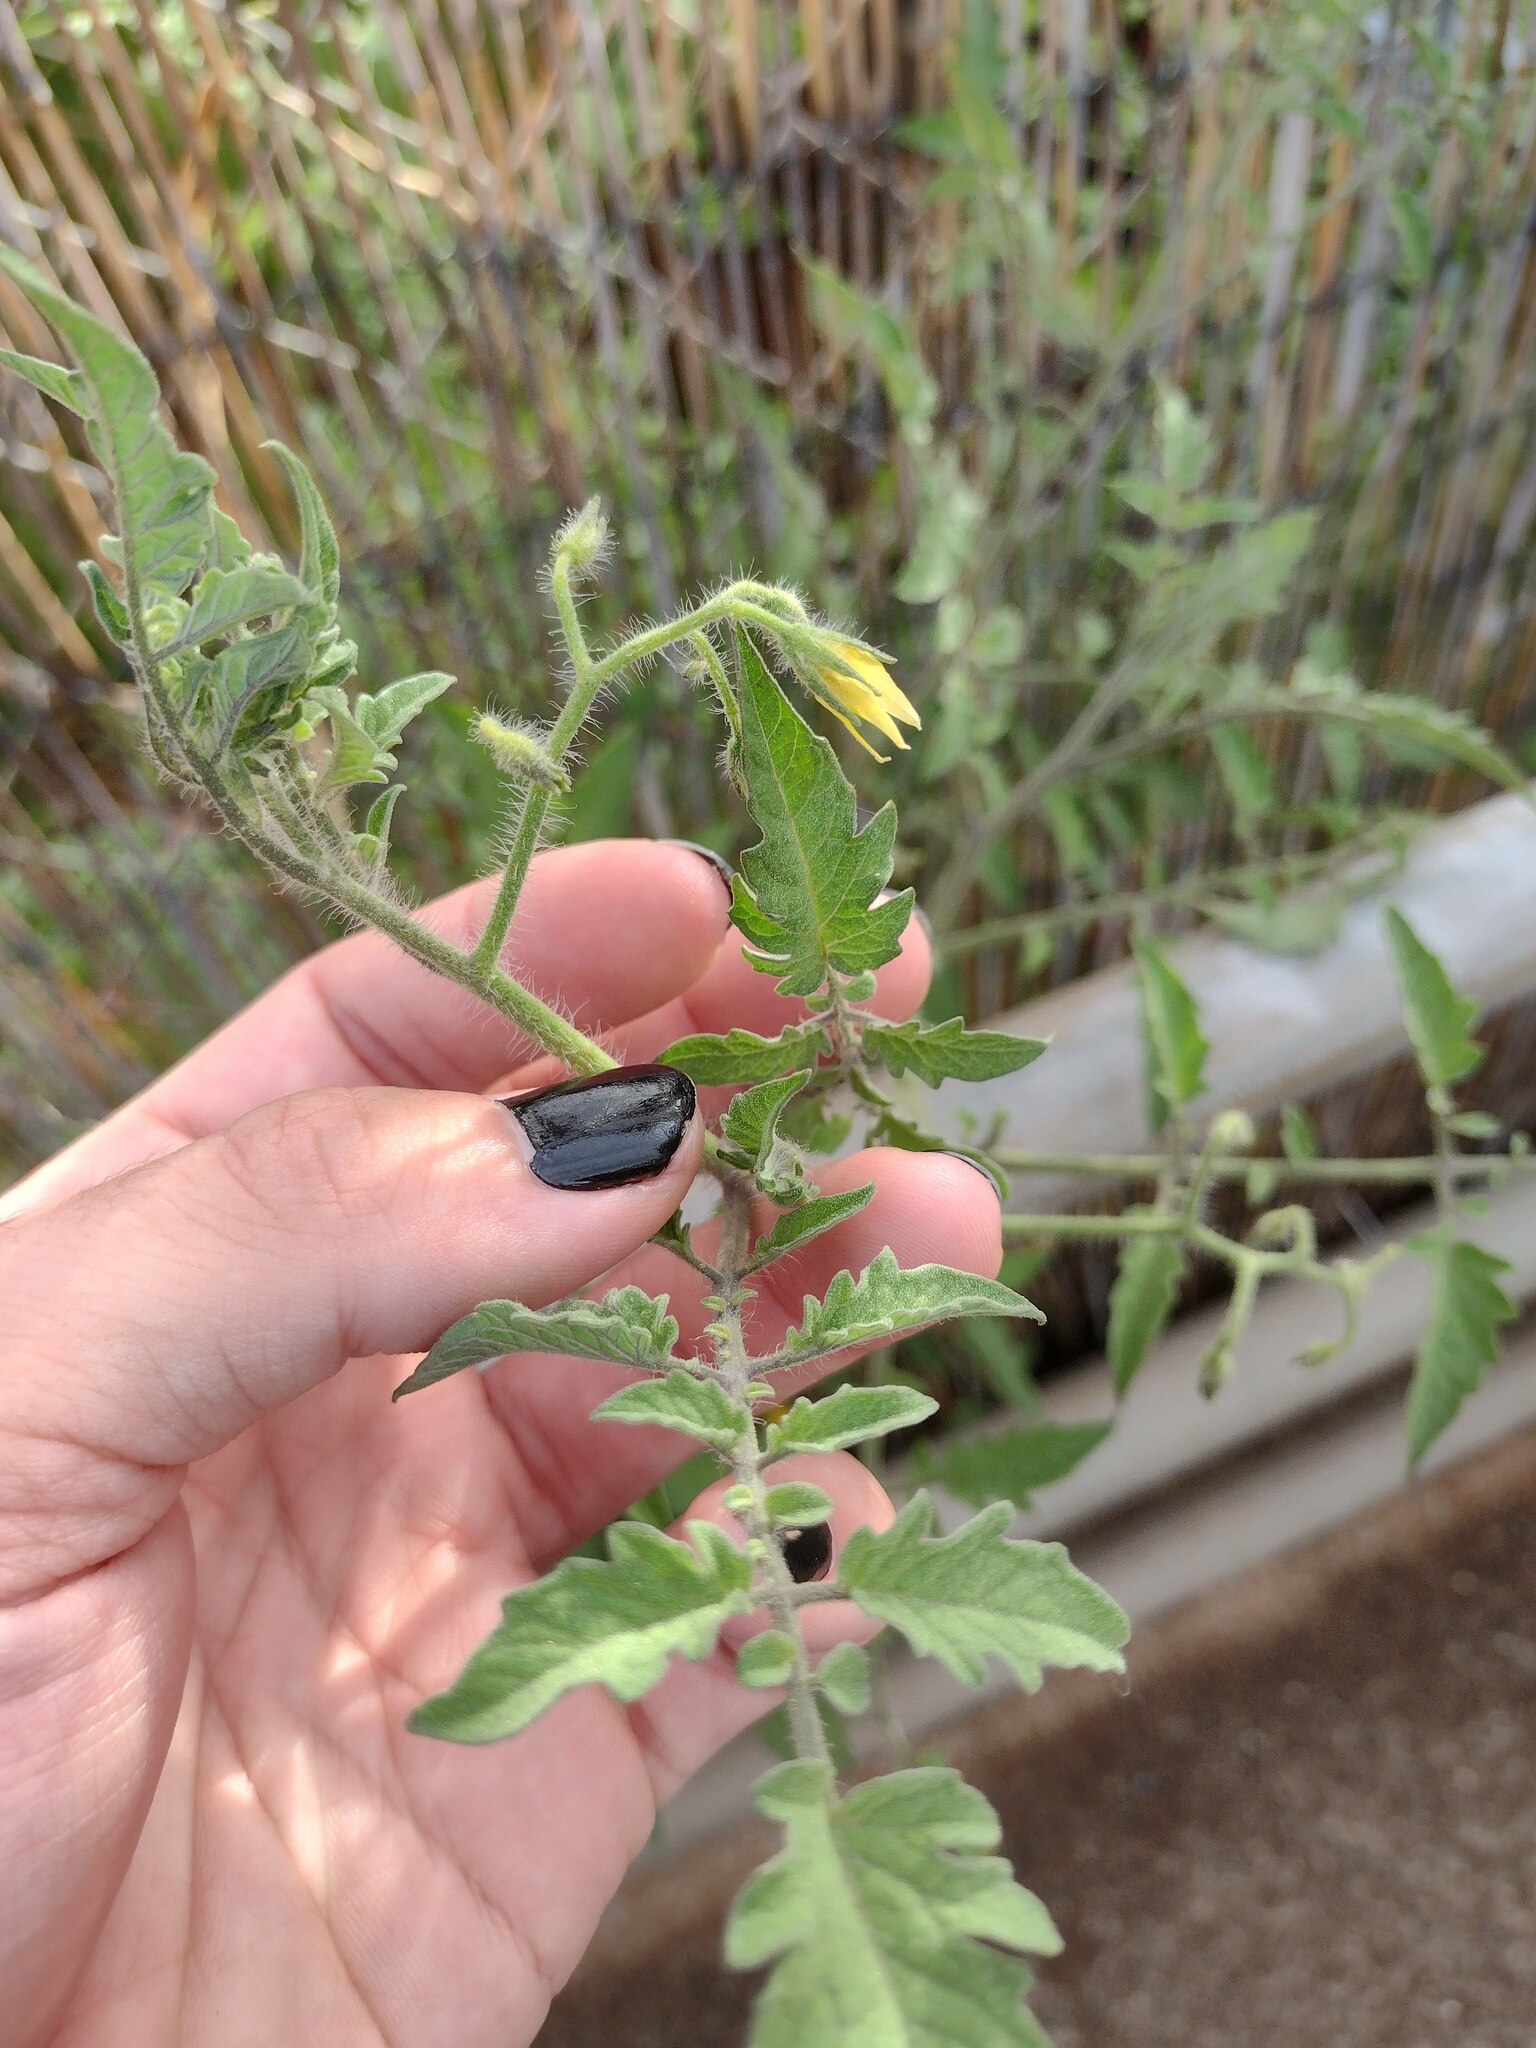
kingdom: Plantae
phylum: Tracheophyta
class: Magnoliopsida
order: Solanales
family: Solanaceae
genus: Solanum
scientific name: Solanum lycopersicum
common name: Garden tomato
